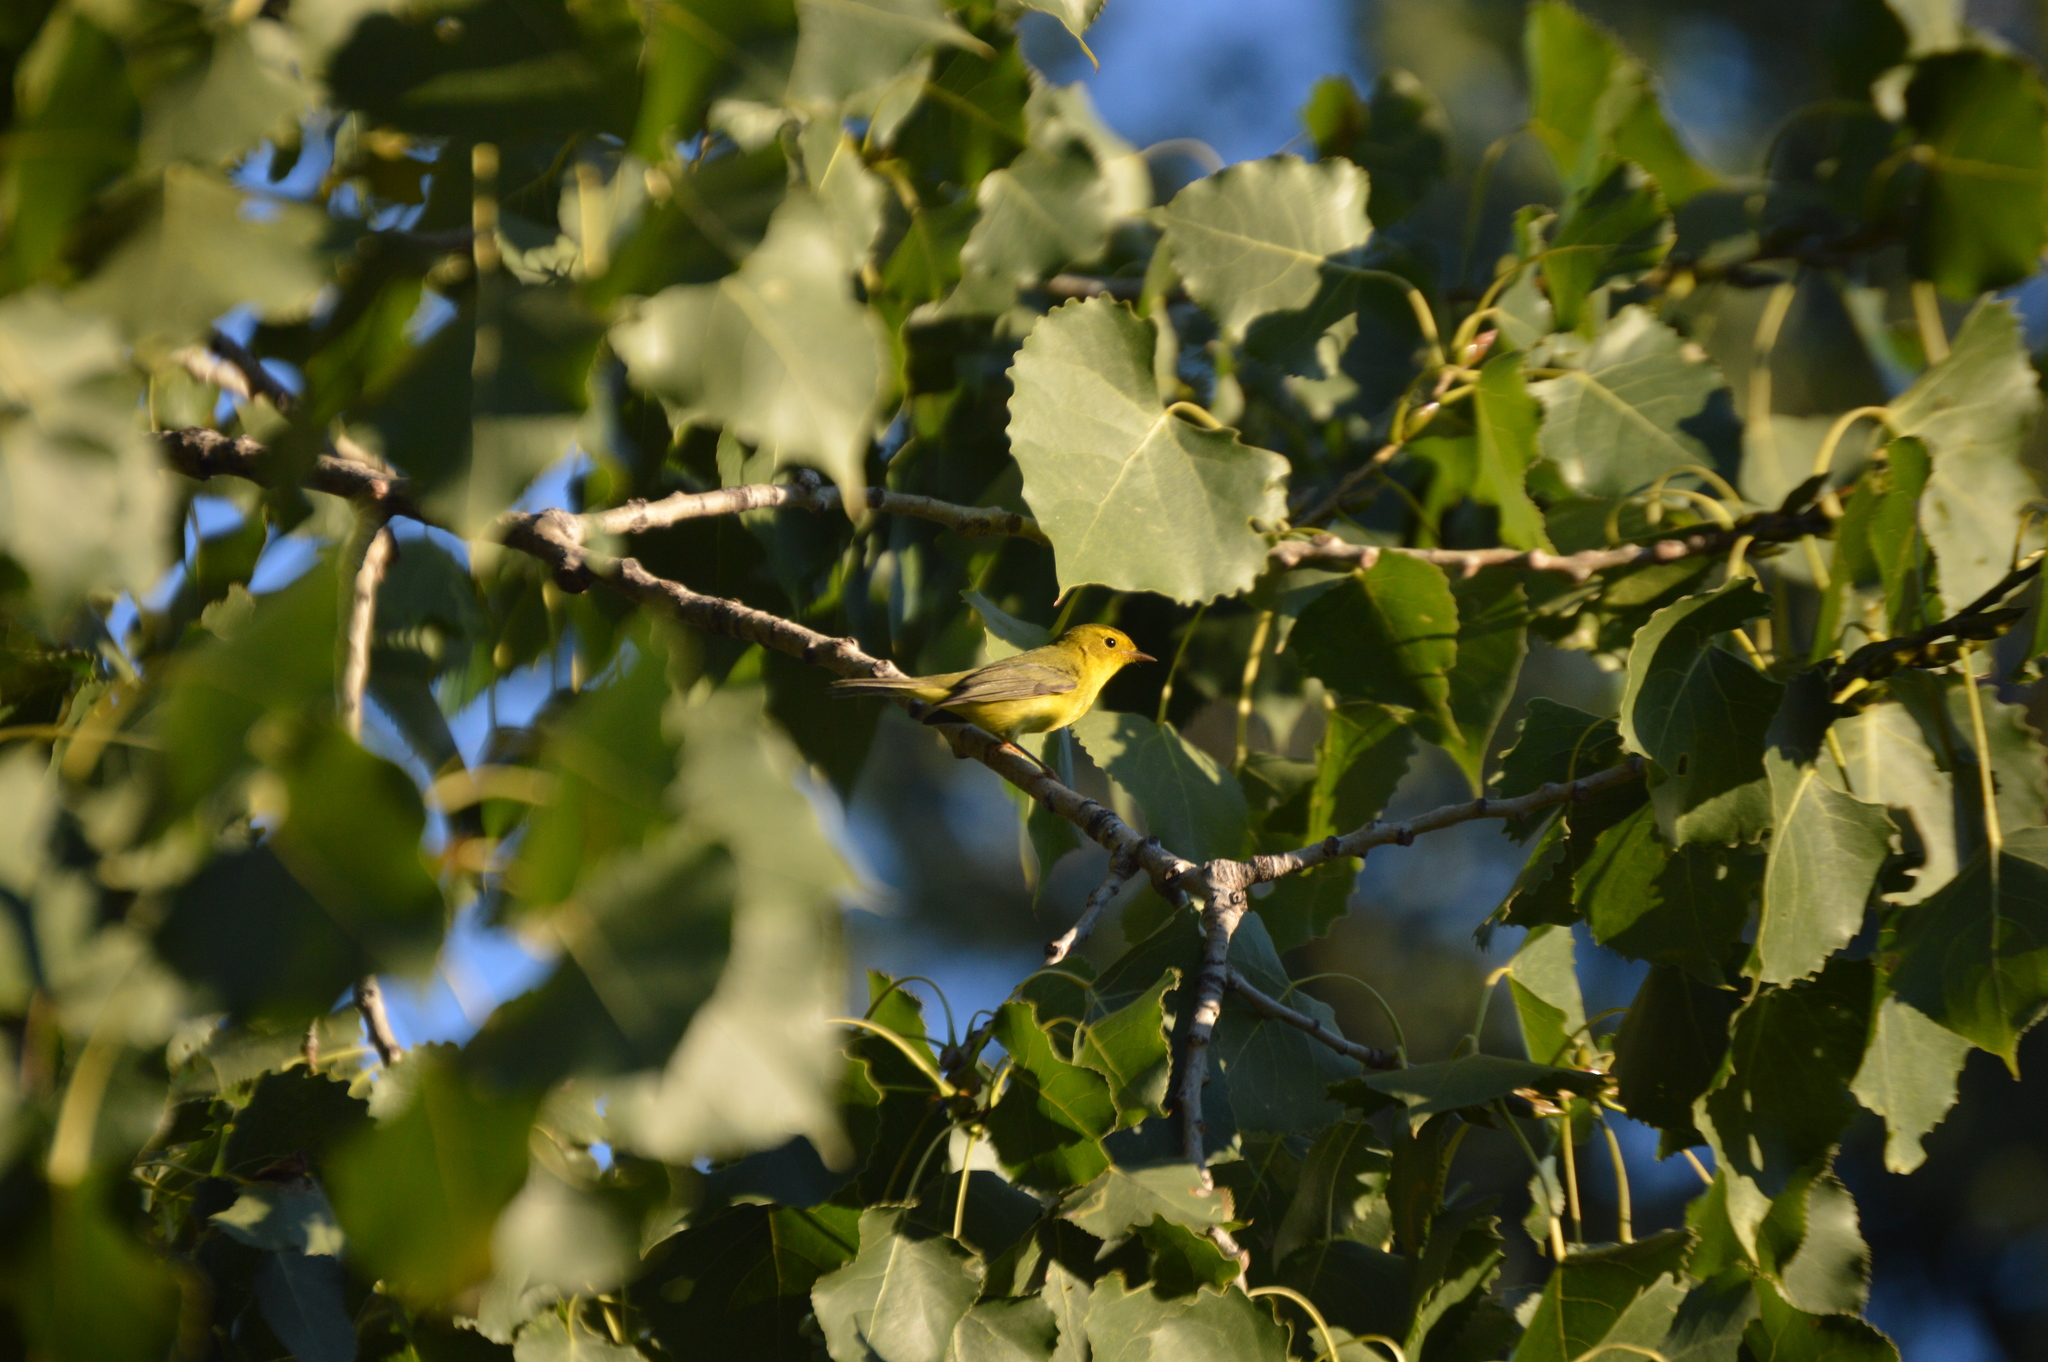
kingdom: Animalia
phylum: Chordata
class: Aves
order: Passeriformes
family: Parulidae
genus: Cardellina
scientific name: Cardellina pusilla
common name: Wilson's warbler
